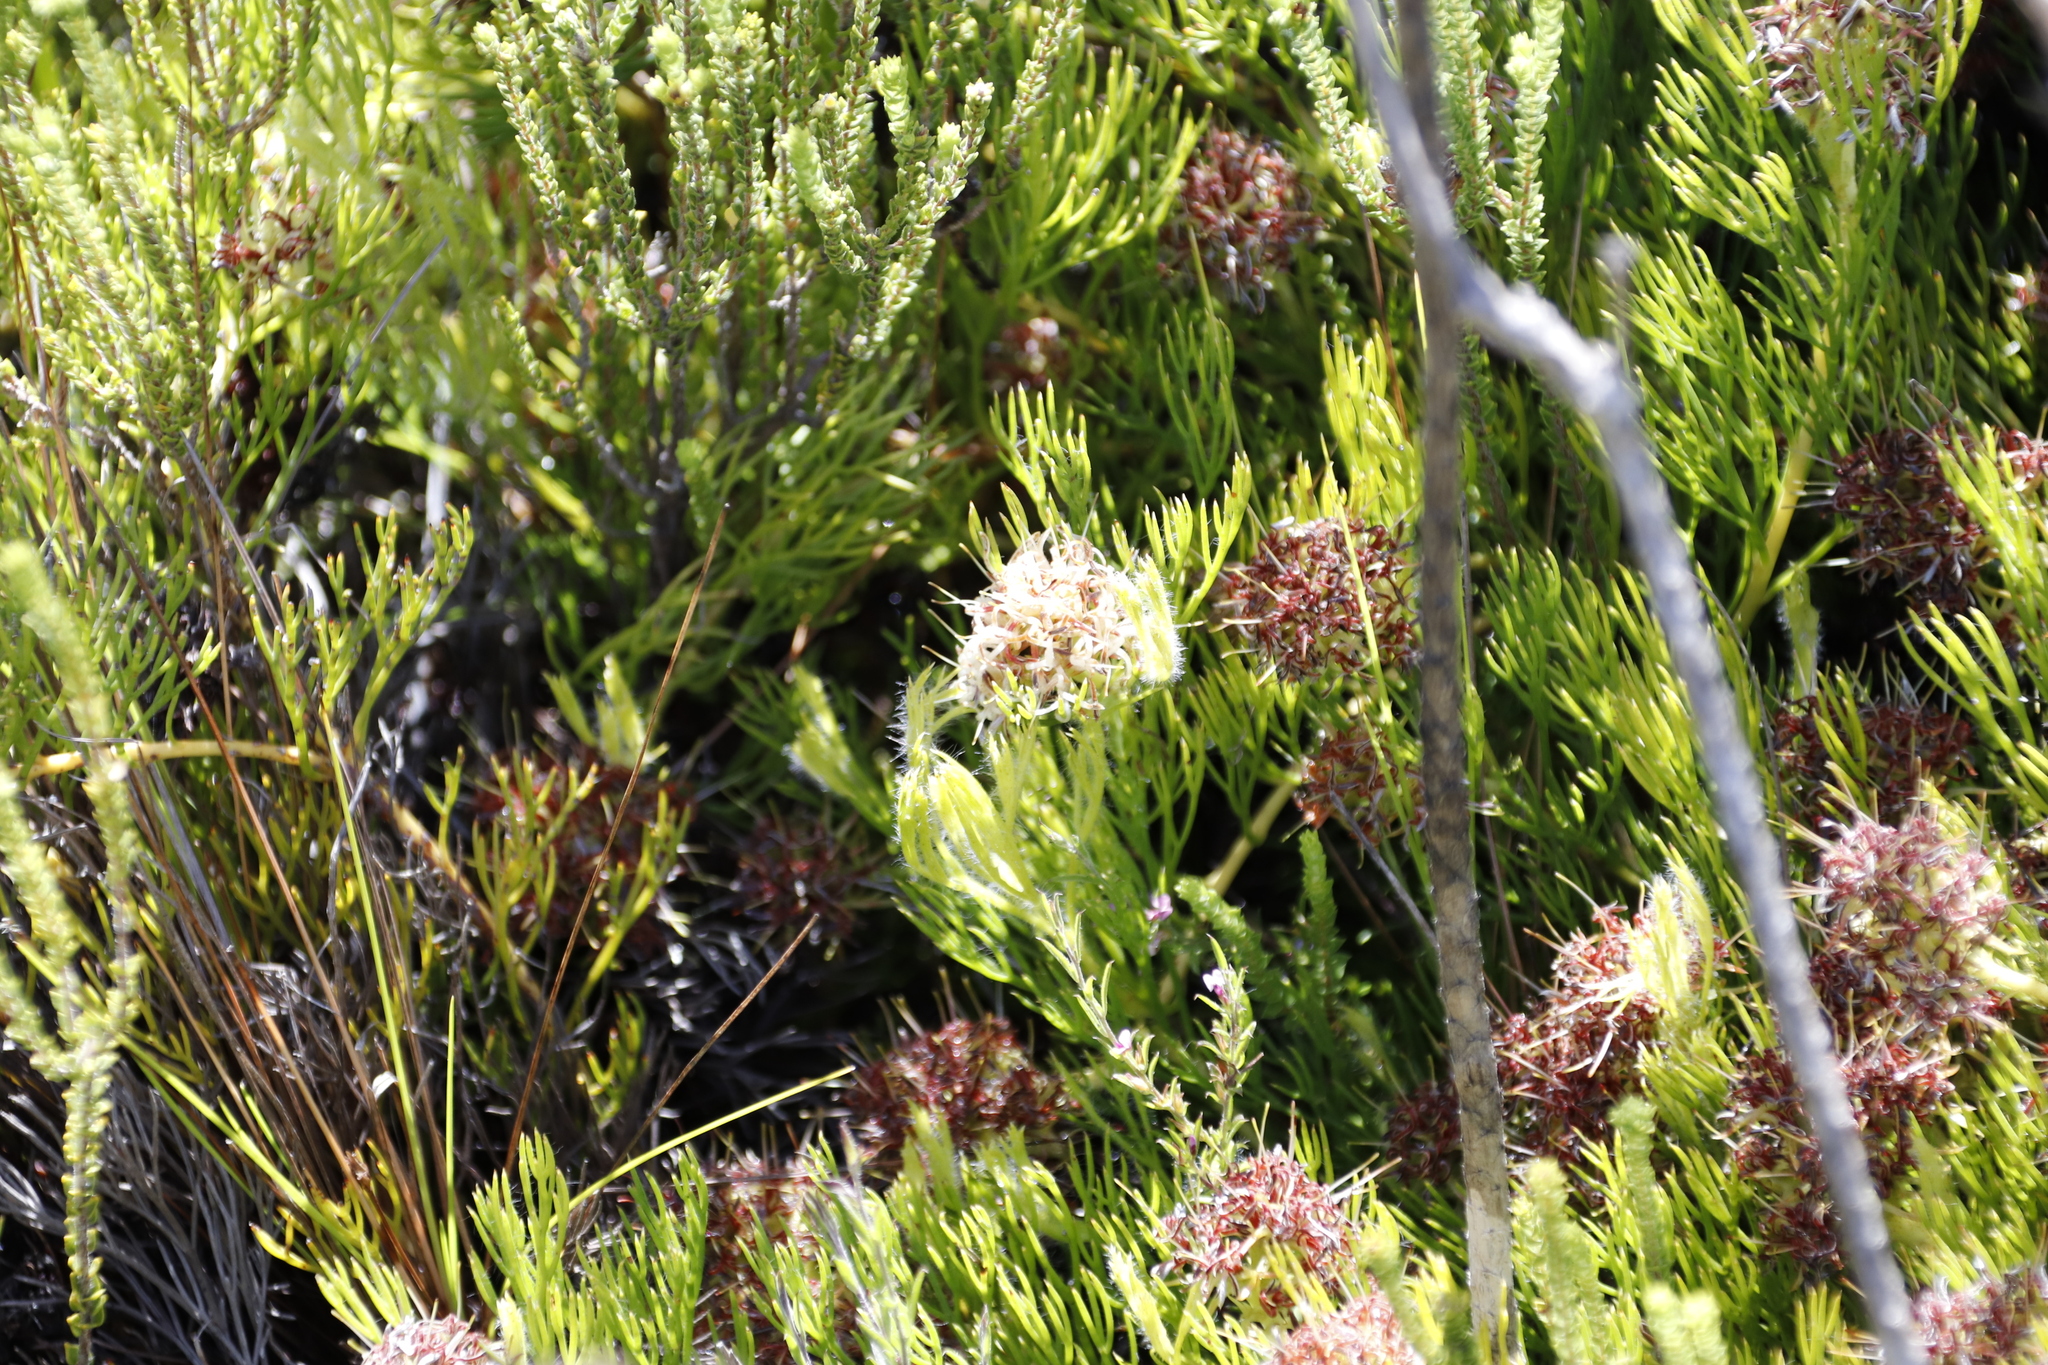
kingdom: Plantae
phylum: Tracheophyta
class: Magnoliopsida
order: Proteales
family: Proteaceae
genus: Serruria
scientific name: Serruria collina
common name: Lost spiderhead
